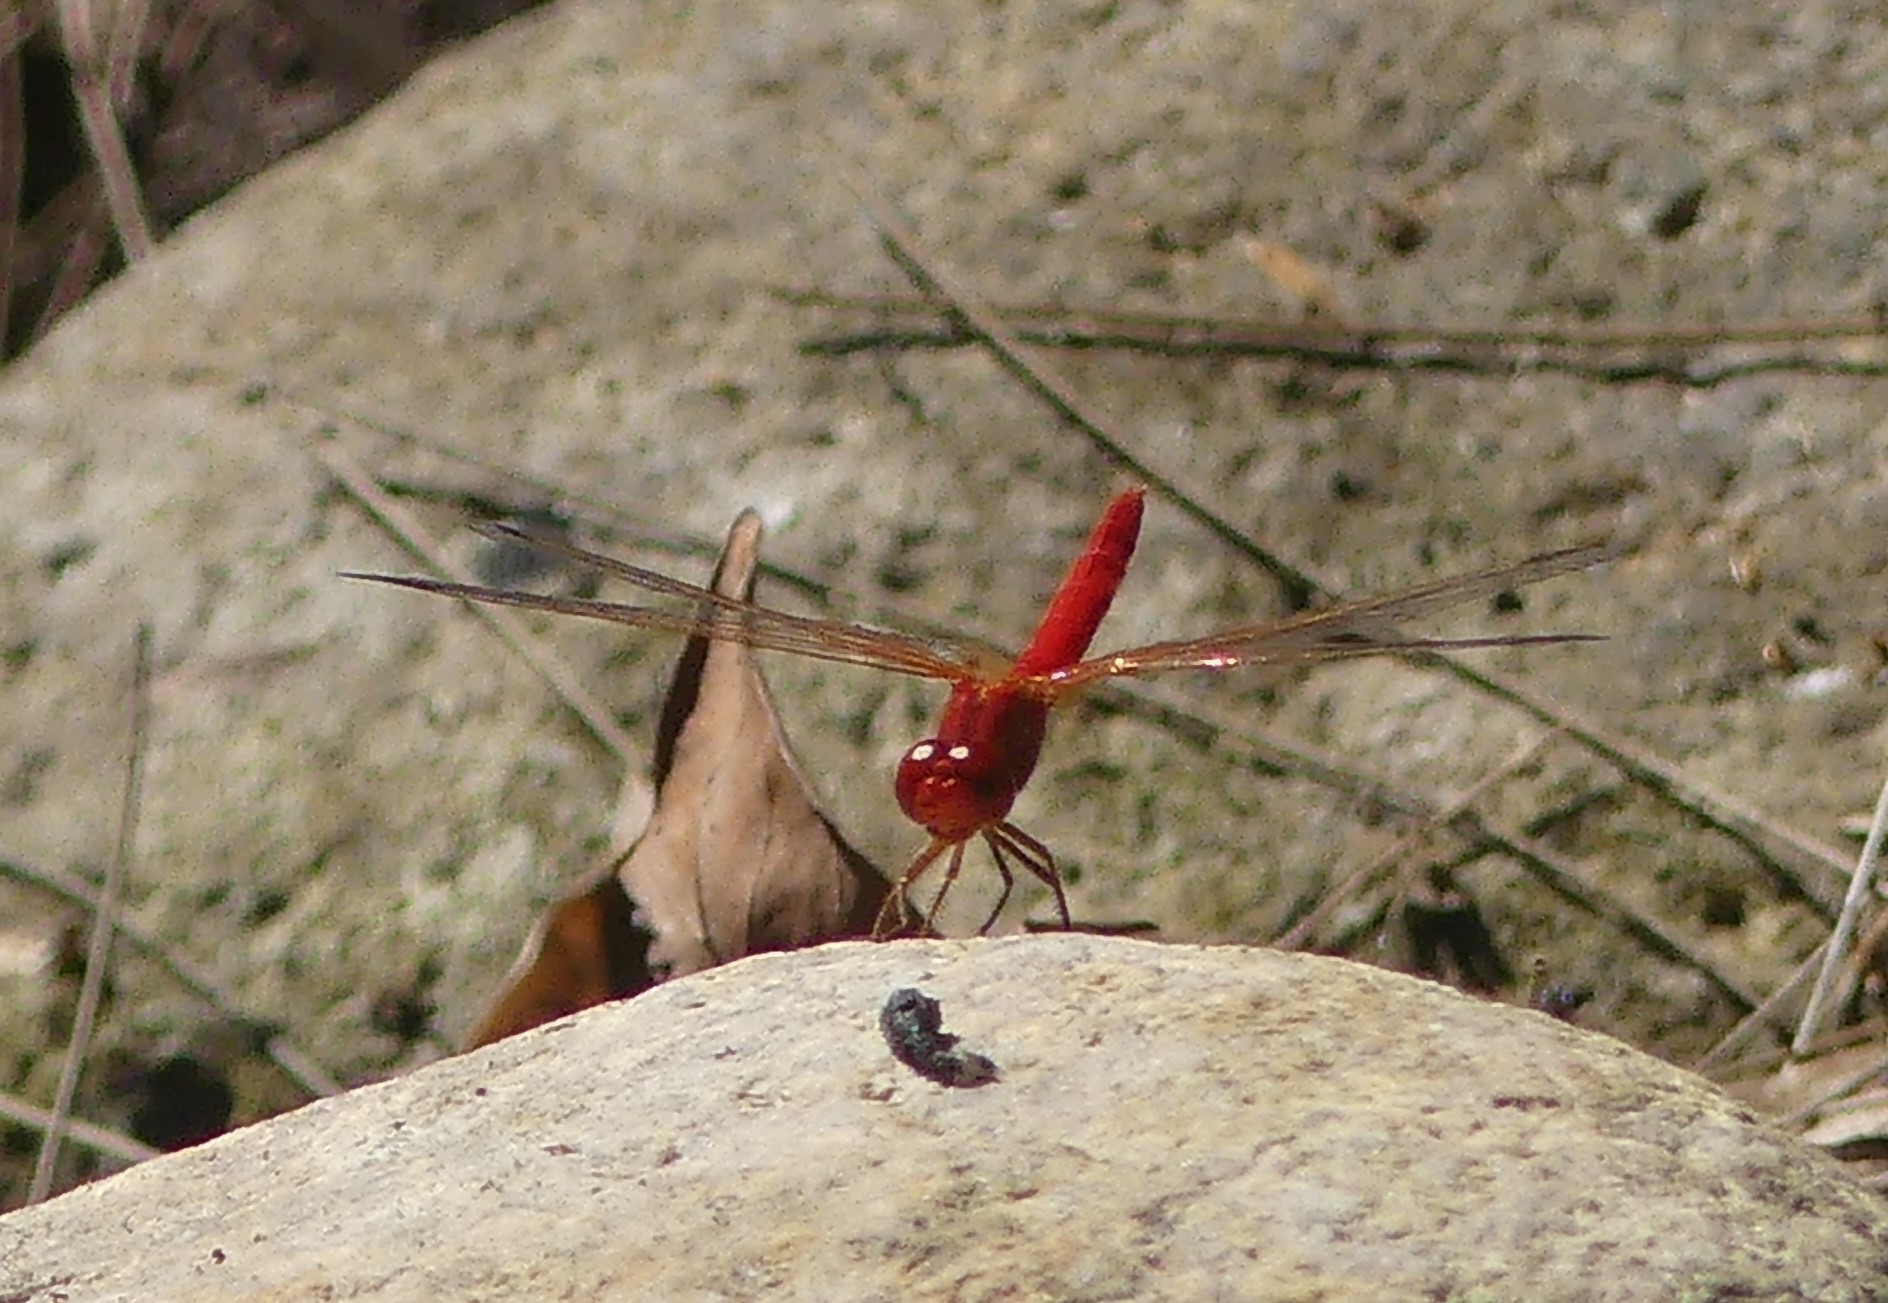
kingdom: Animalia
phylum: Arthropoda
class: Insecta
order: Odonata
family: Libellulidae
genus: Diplacodes
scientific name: Diplacodes haematodes
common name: Scarlet percher
